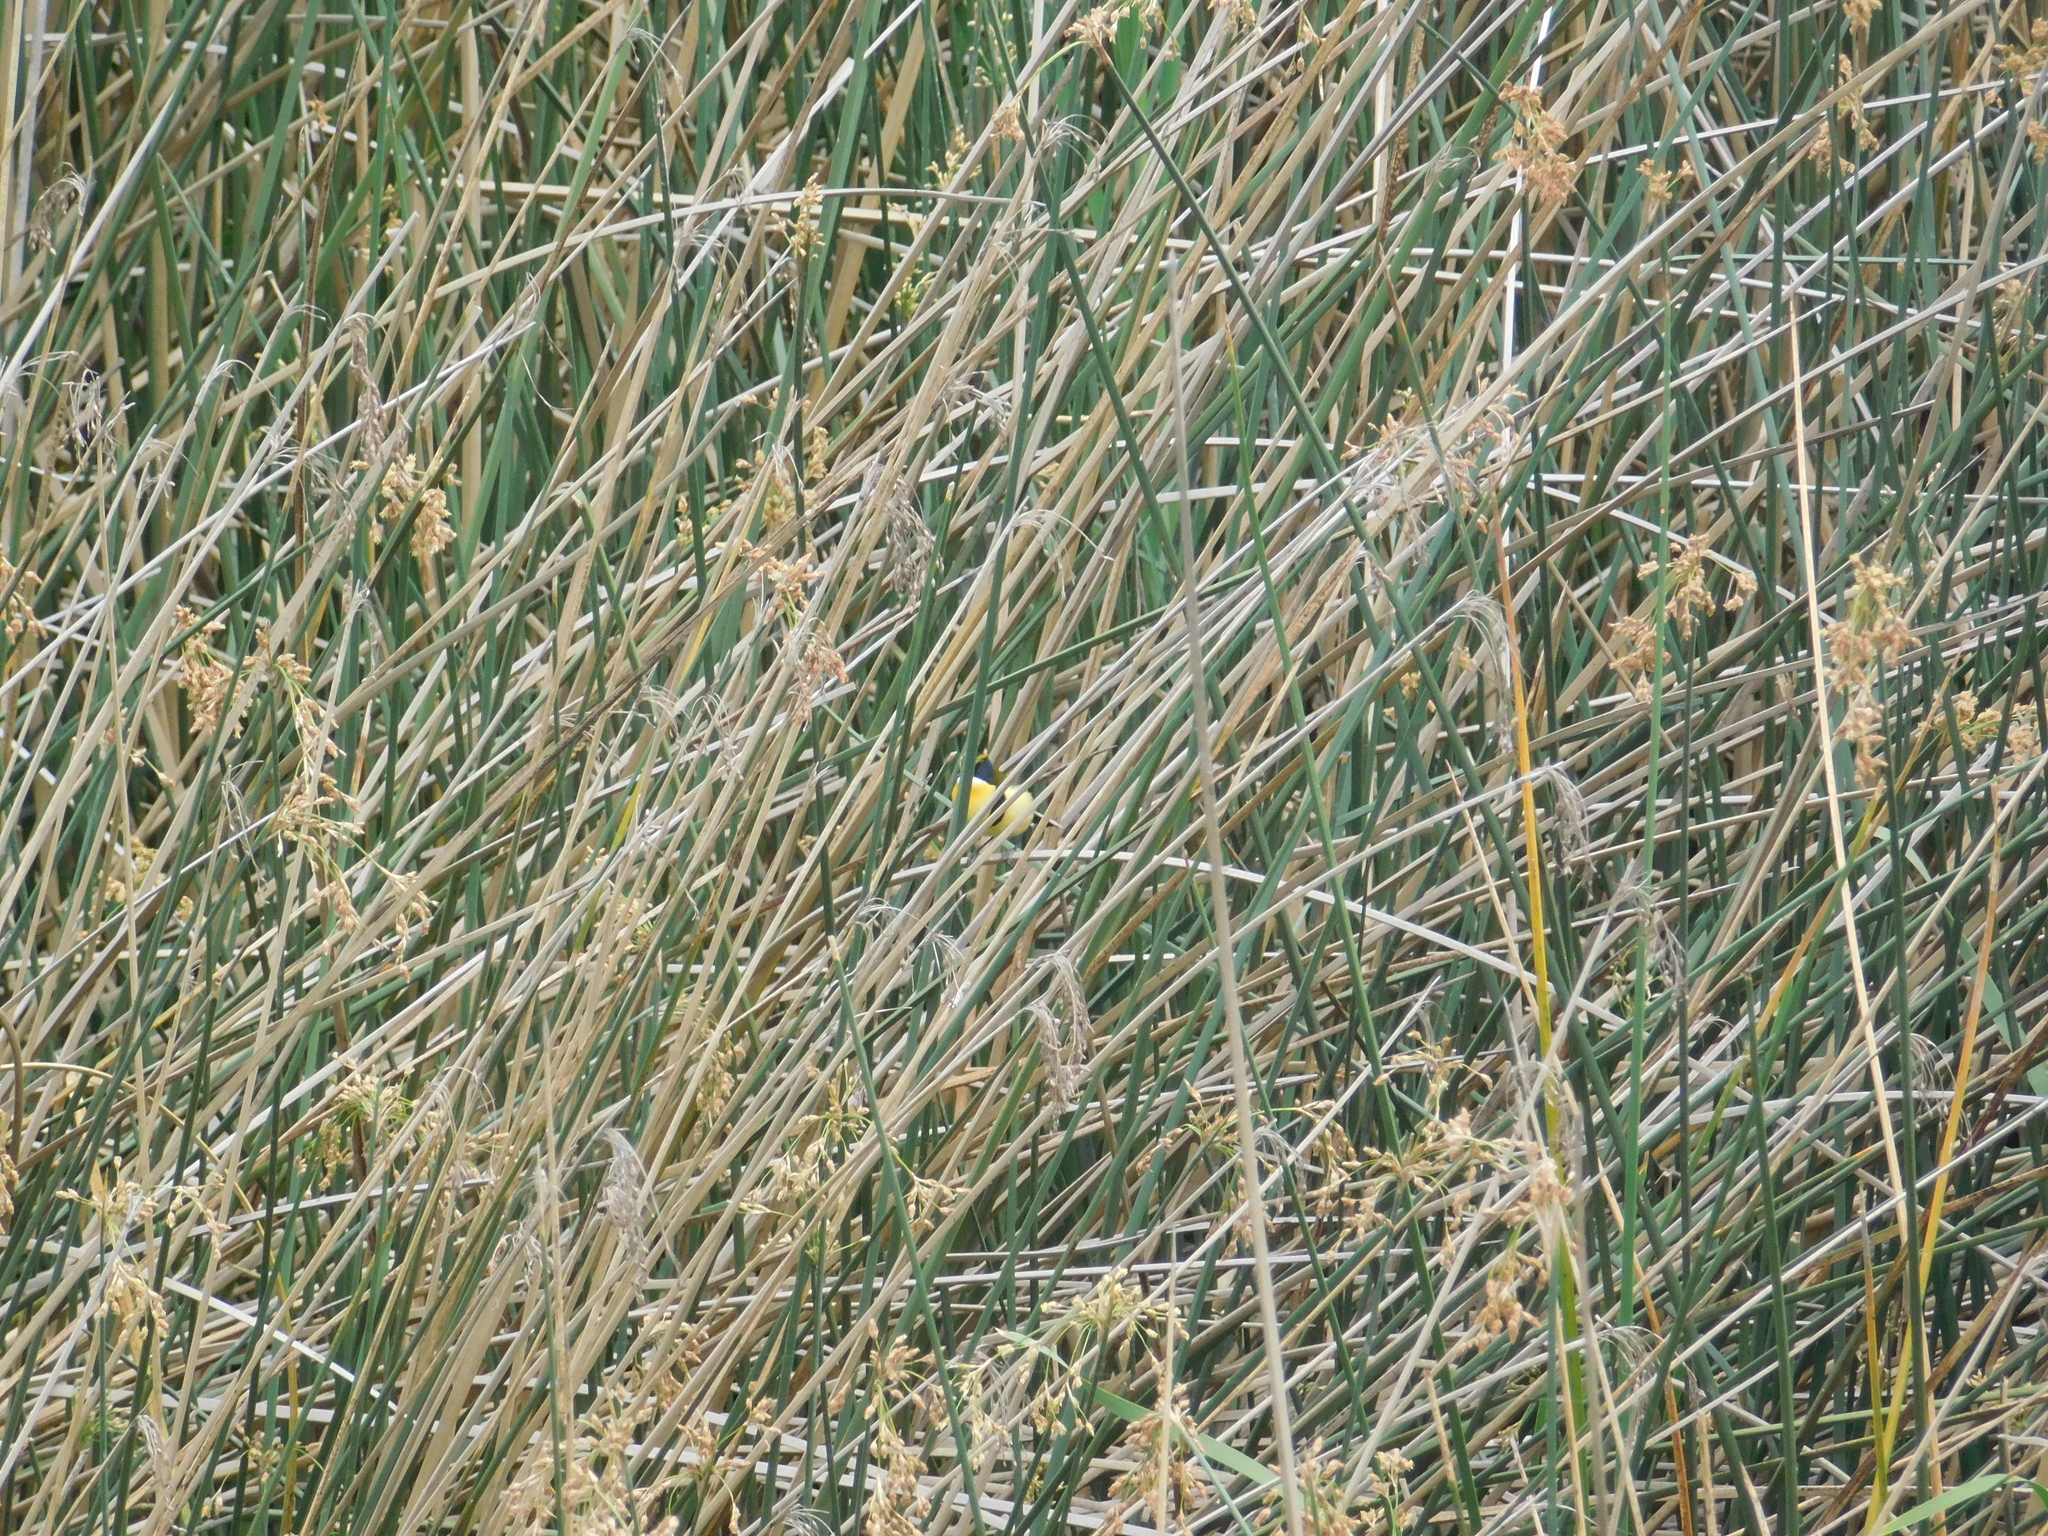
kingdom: Animalia
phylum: Chordata
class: Aves
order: Passeriformes
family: Tyrannidae
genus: Tachuris
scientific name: Tachuris rubrigastra
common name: Many-colored rush tyrant
